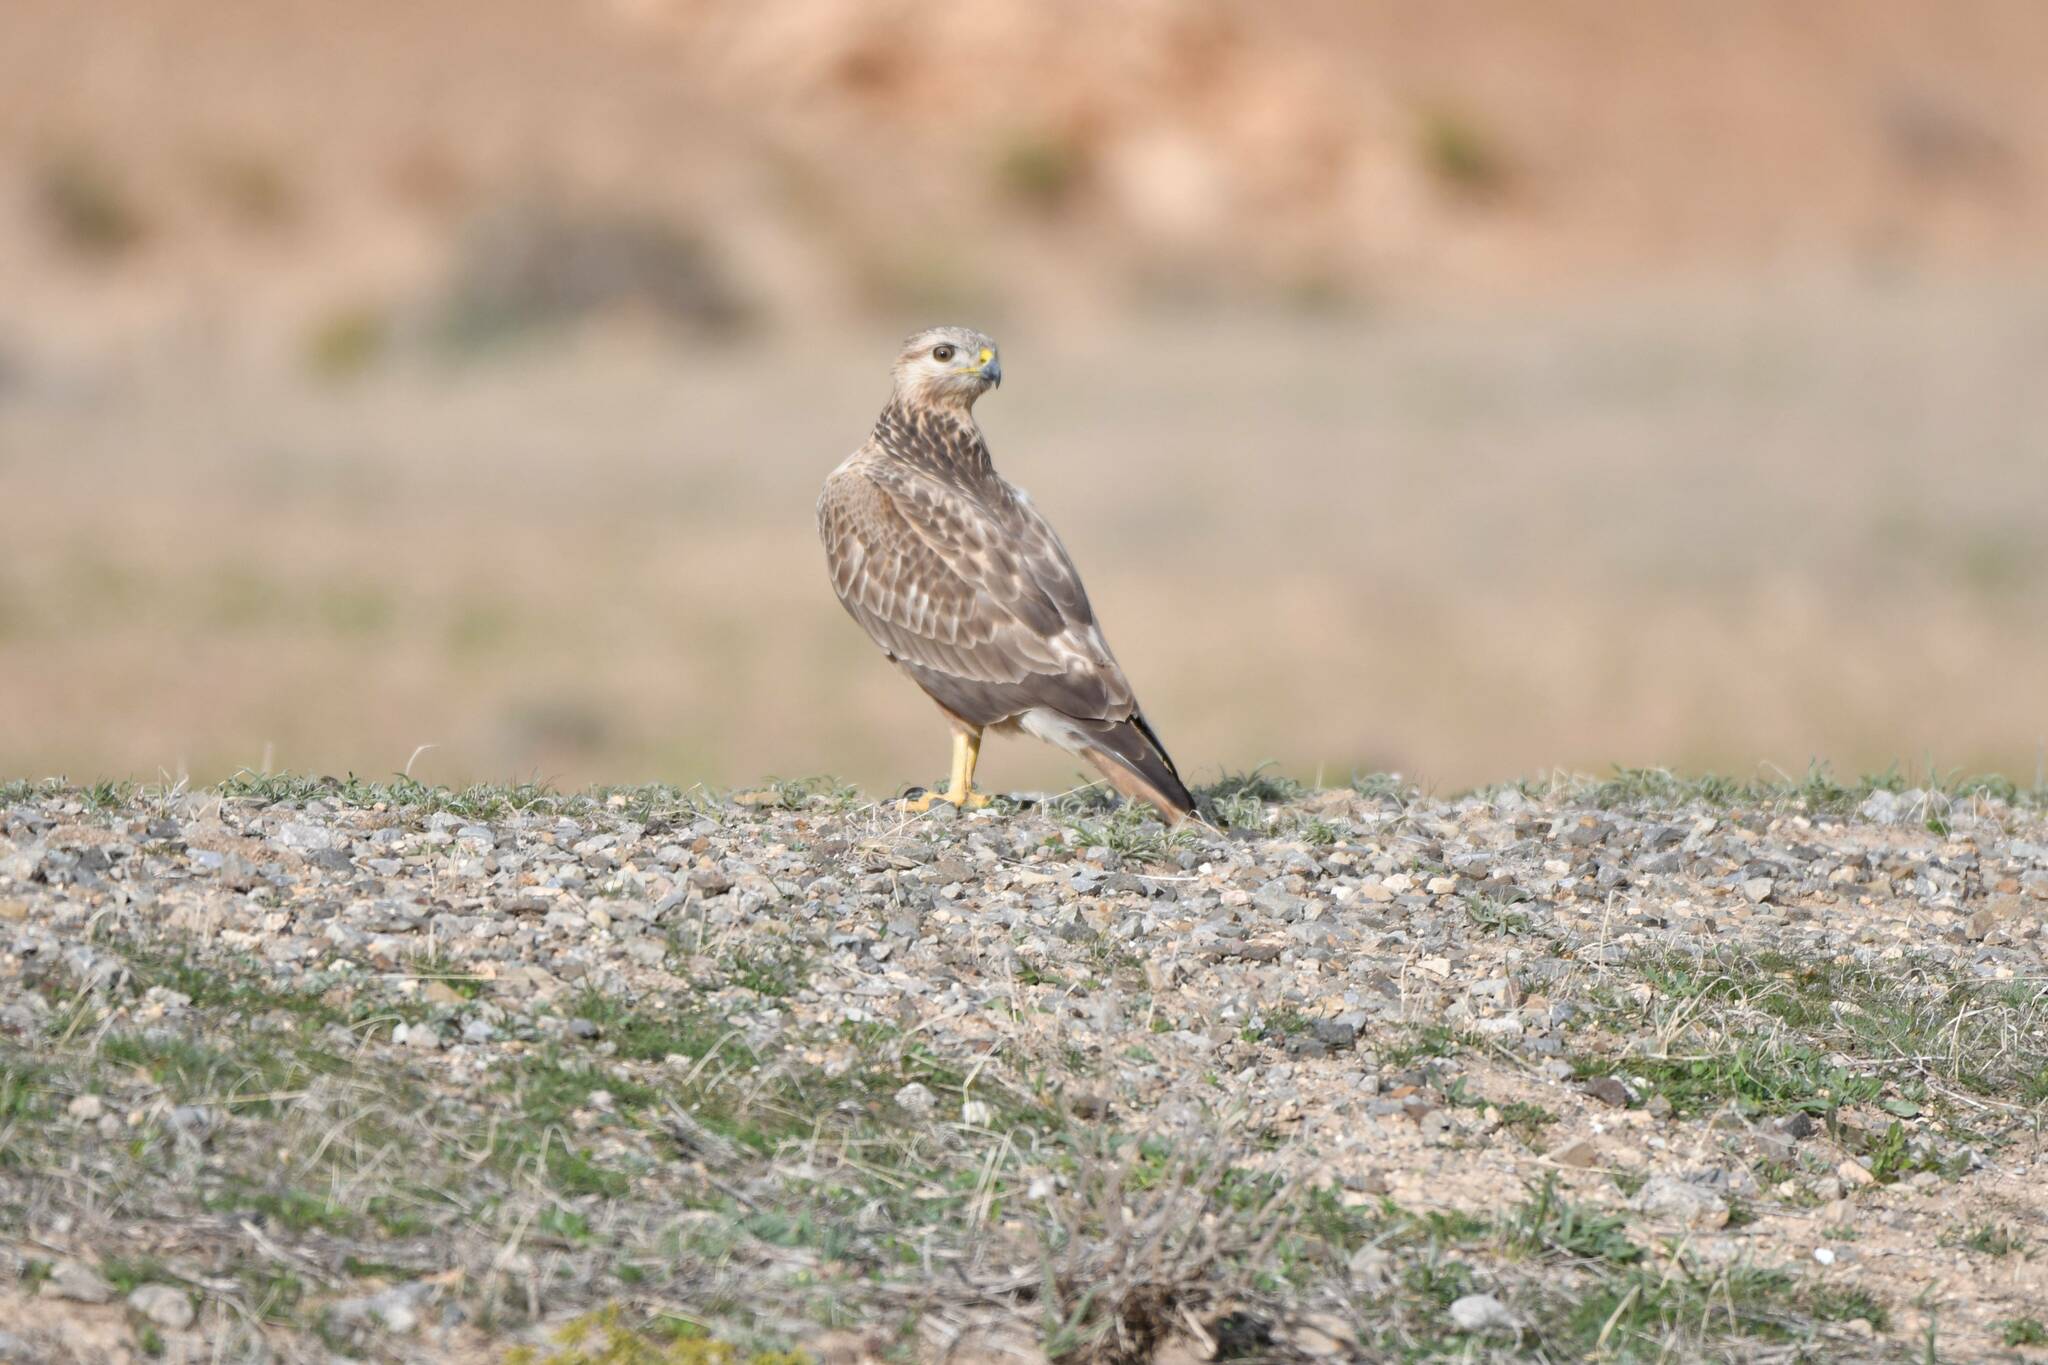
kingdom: Animalia
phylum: Chordata
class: Aves
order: Accipitriformes
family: Accipitridae
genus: Buteo
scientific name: Buteo rufinus
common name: Long-legged buzzard
